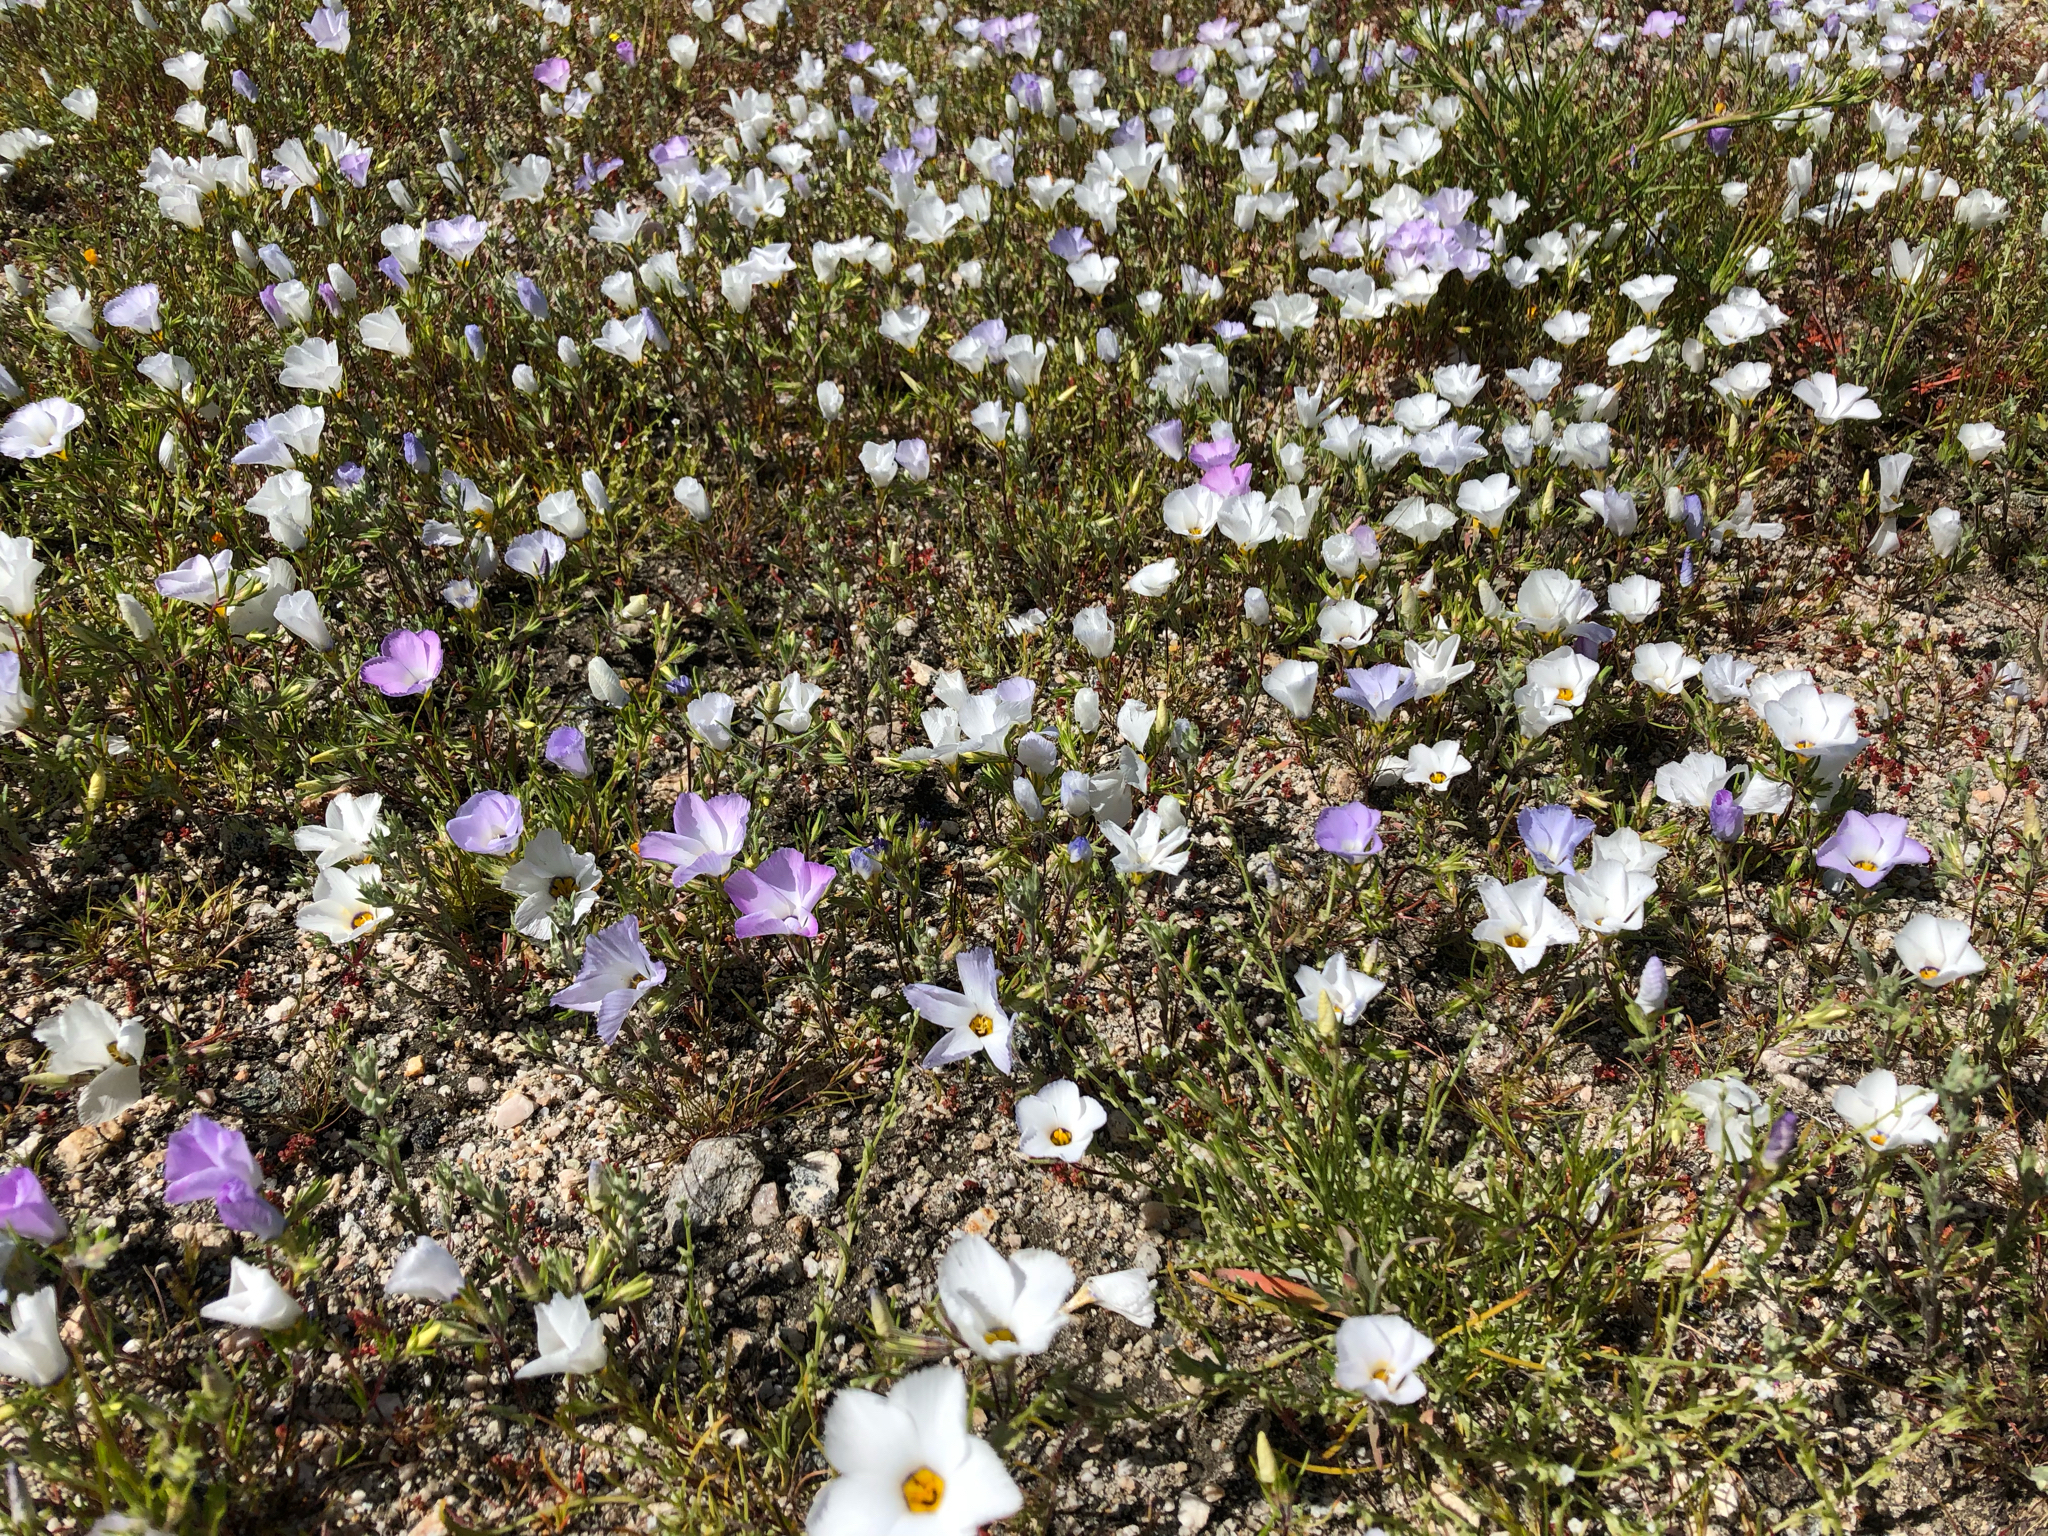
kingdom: Plantae
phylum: Tracheophyta
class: Magnoliopsida
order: Ericales
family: Polemoniaceae
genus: Linanthus
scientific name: Linanthus dianthiflorus
